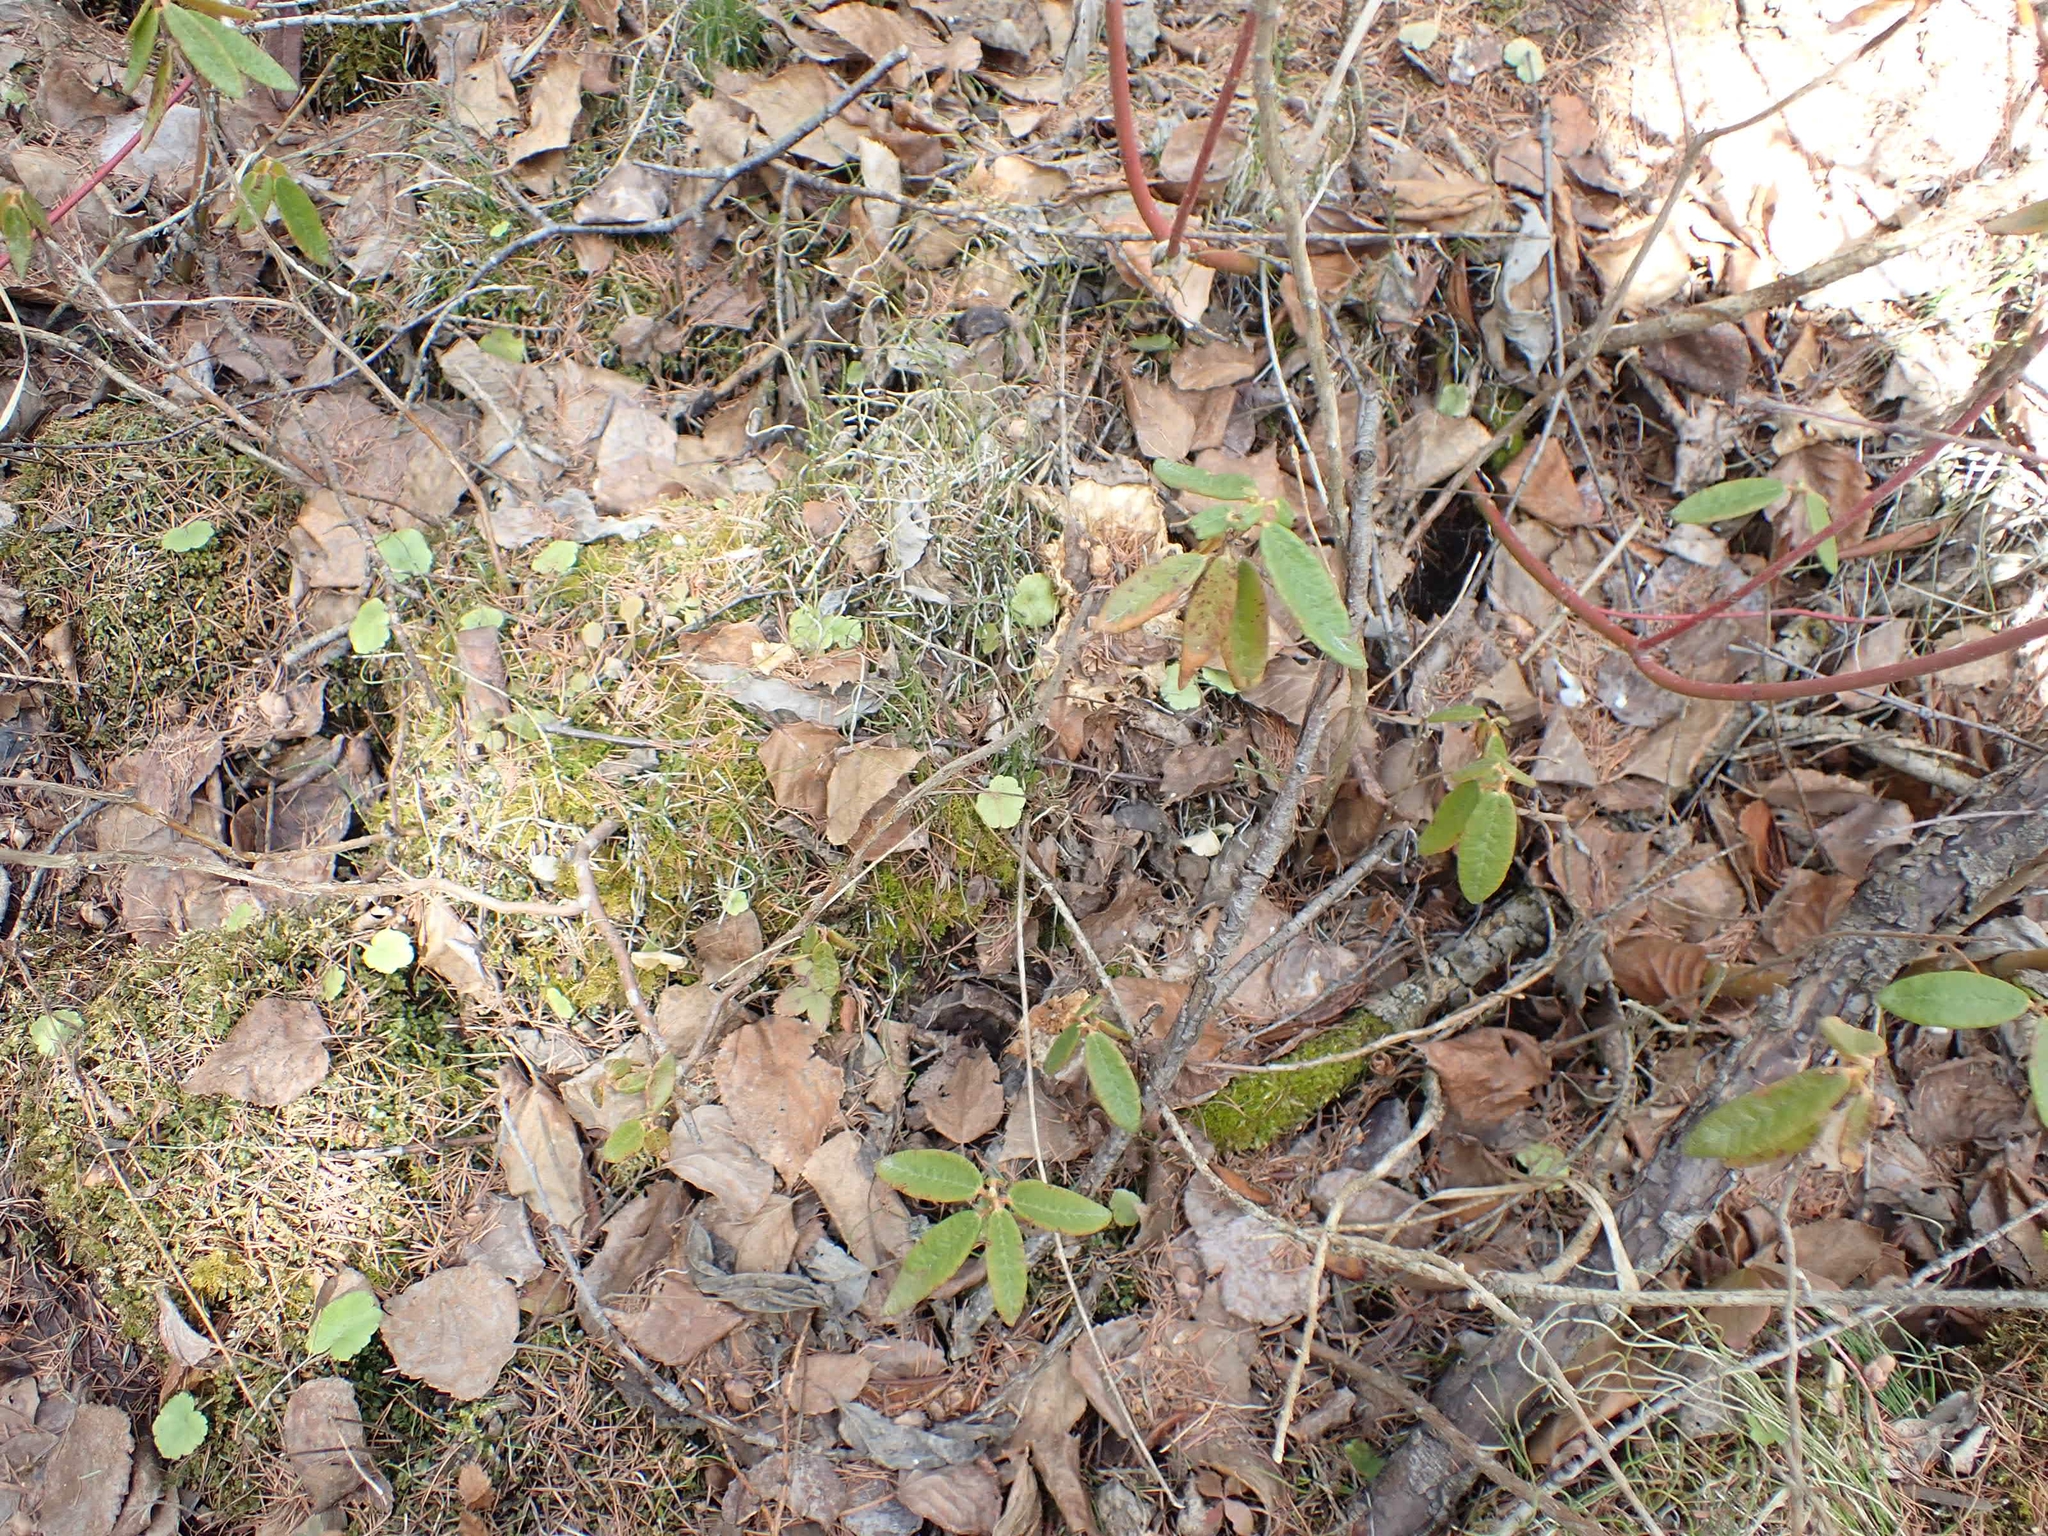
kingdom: Plantae
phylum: Tracheophyta
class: Magnoliopsida
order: Ericales
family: Ericaceae
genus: Rhododendron
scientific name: Rhododendron groenlandicum
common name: Bog labrador tea
